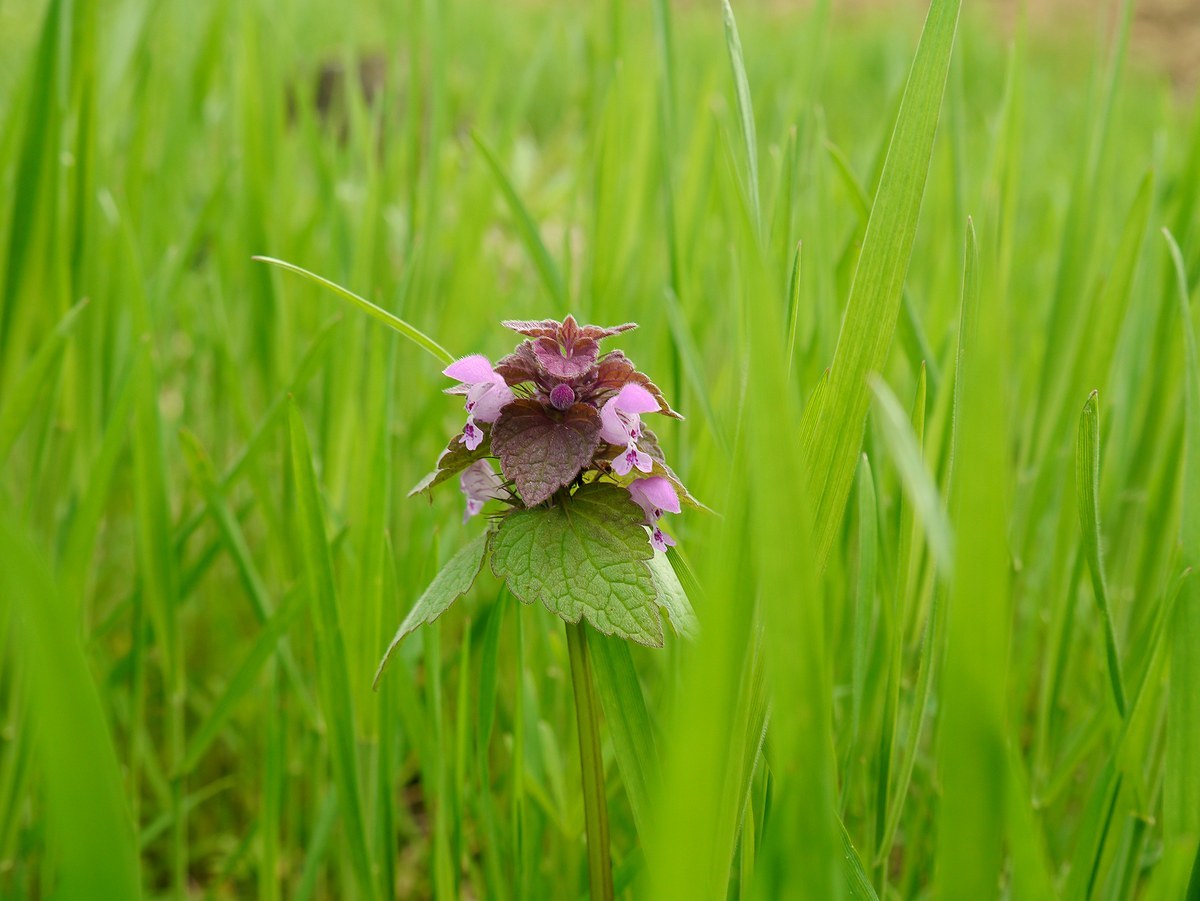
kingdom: Plantae
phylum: Tracheophyta
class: Magnoliopsida
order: Lamiales
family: Lamiaceae
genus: Lamium
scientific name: Lamium purpureum
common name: Red dead-nettle
